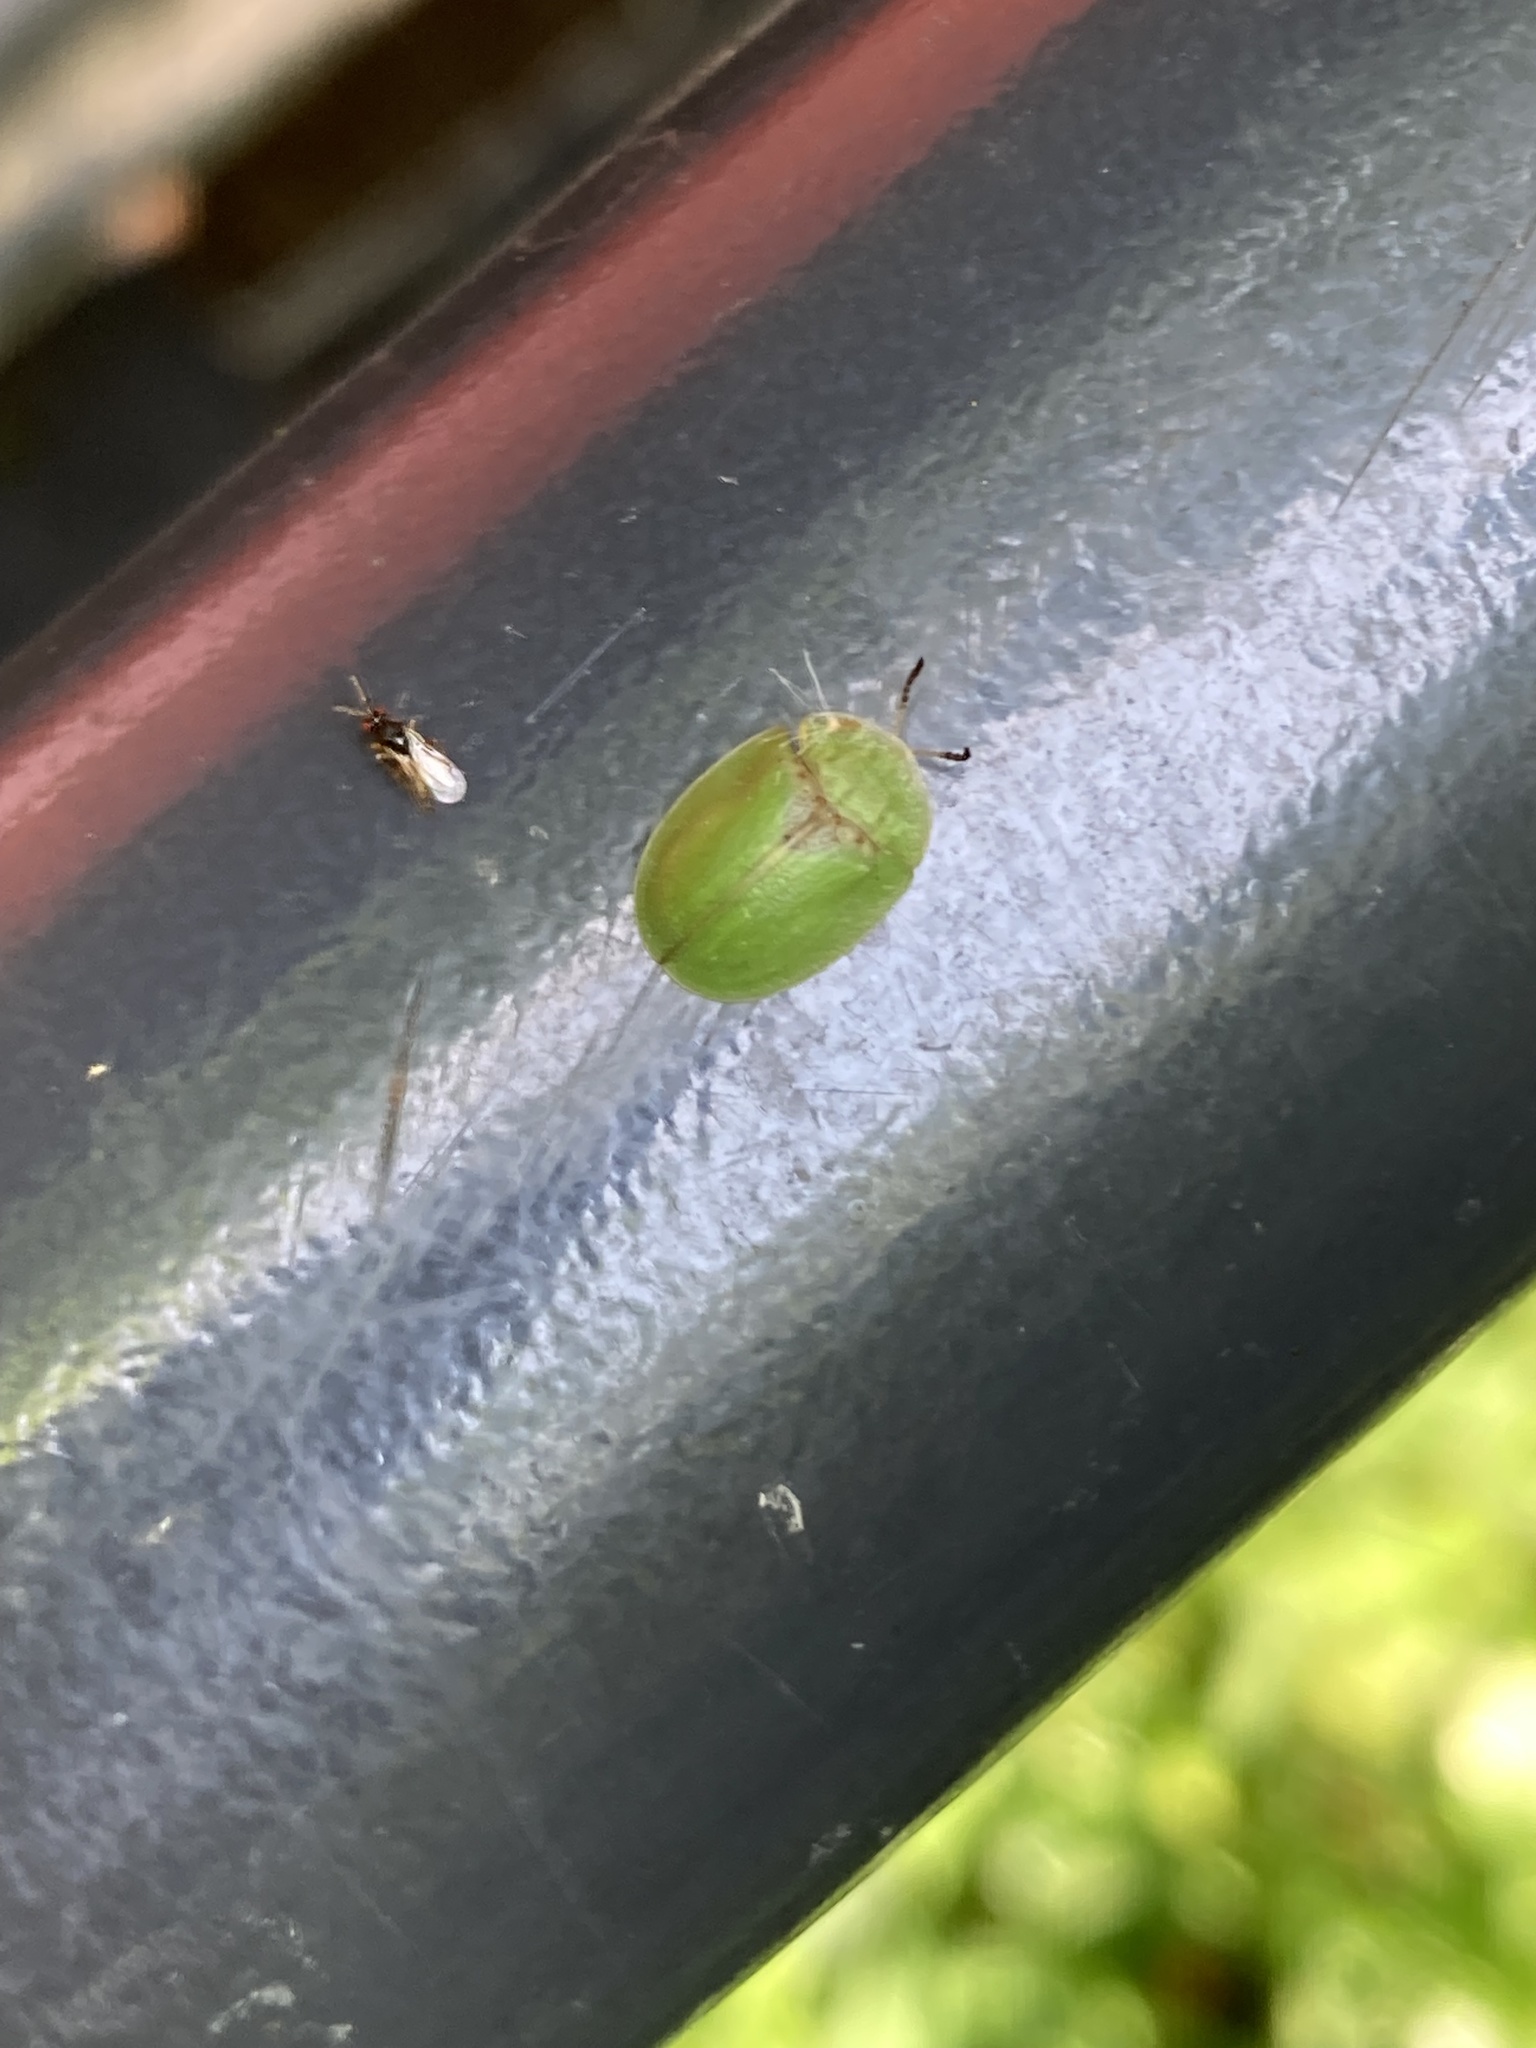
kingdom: Animalia
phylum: Arthropoda
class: Insecta
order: Coleoptera
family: Chrysomelidae
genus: Cassida
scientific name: Cassida rubiginosa
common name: Thistle tortoise beetle
